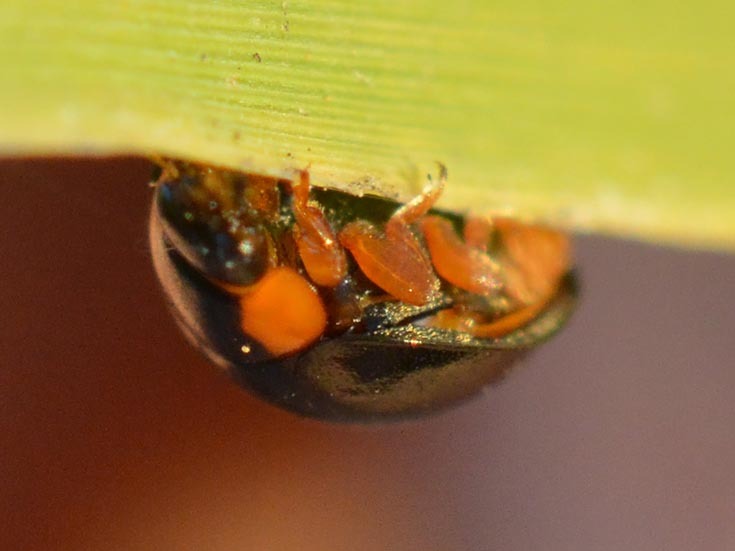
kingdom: Animalia
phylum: Arthropoda
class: Insecta
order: Coleoptera
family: Coccinellidae
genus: Parexochomus
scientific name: Parexochomus nigromaculatus
